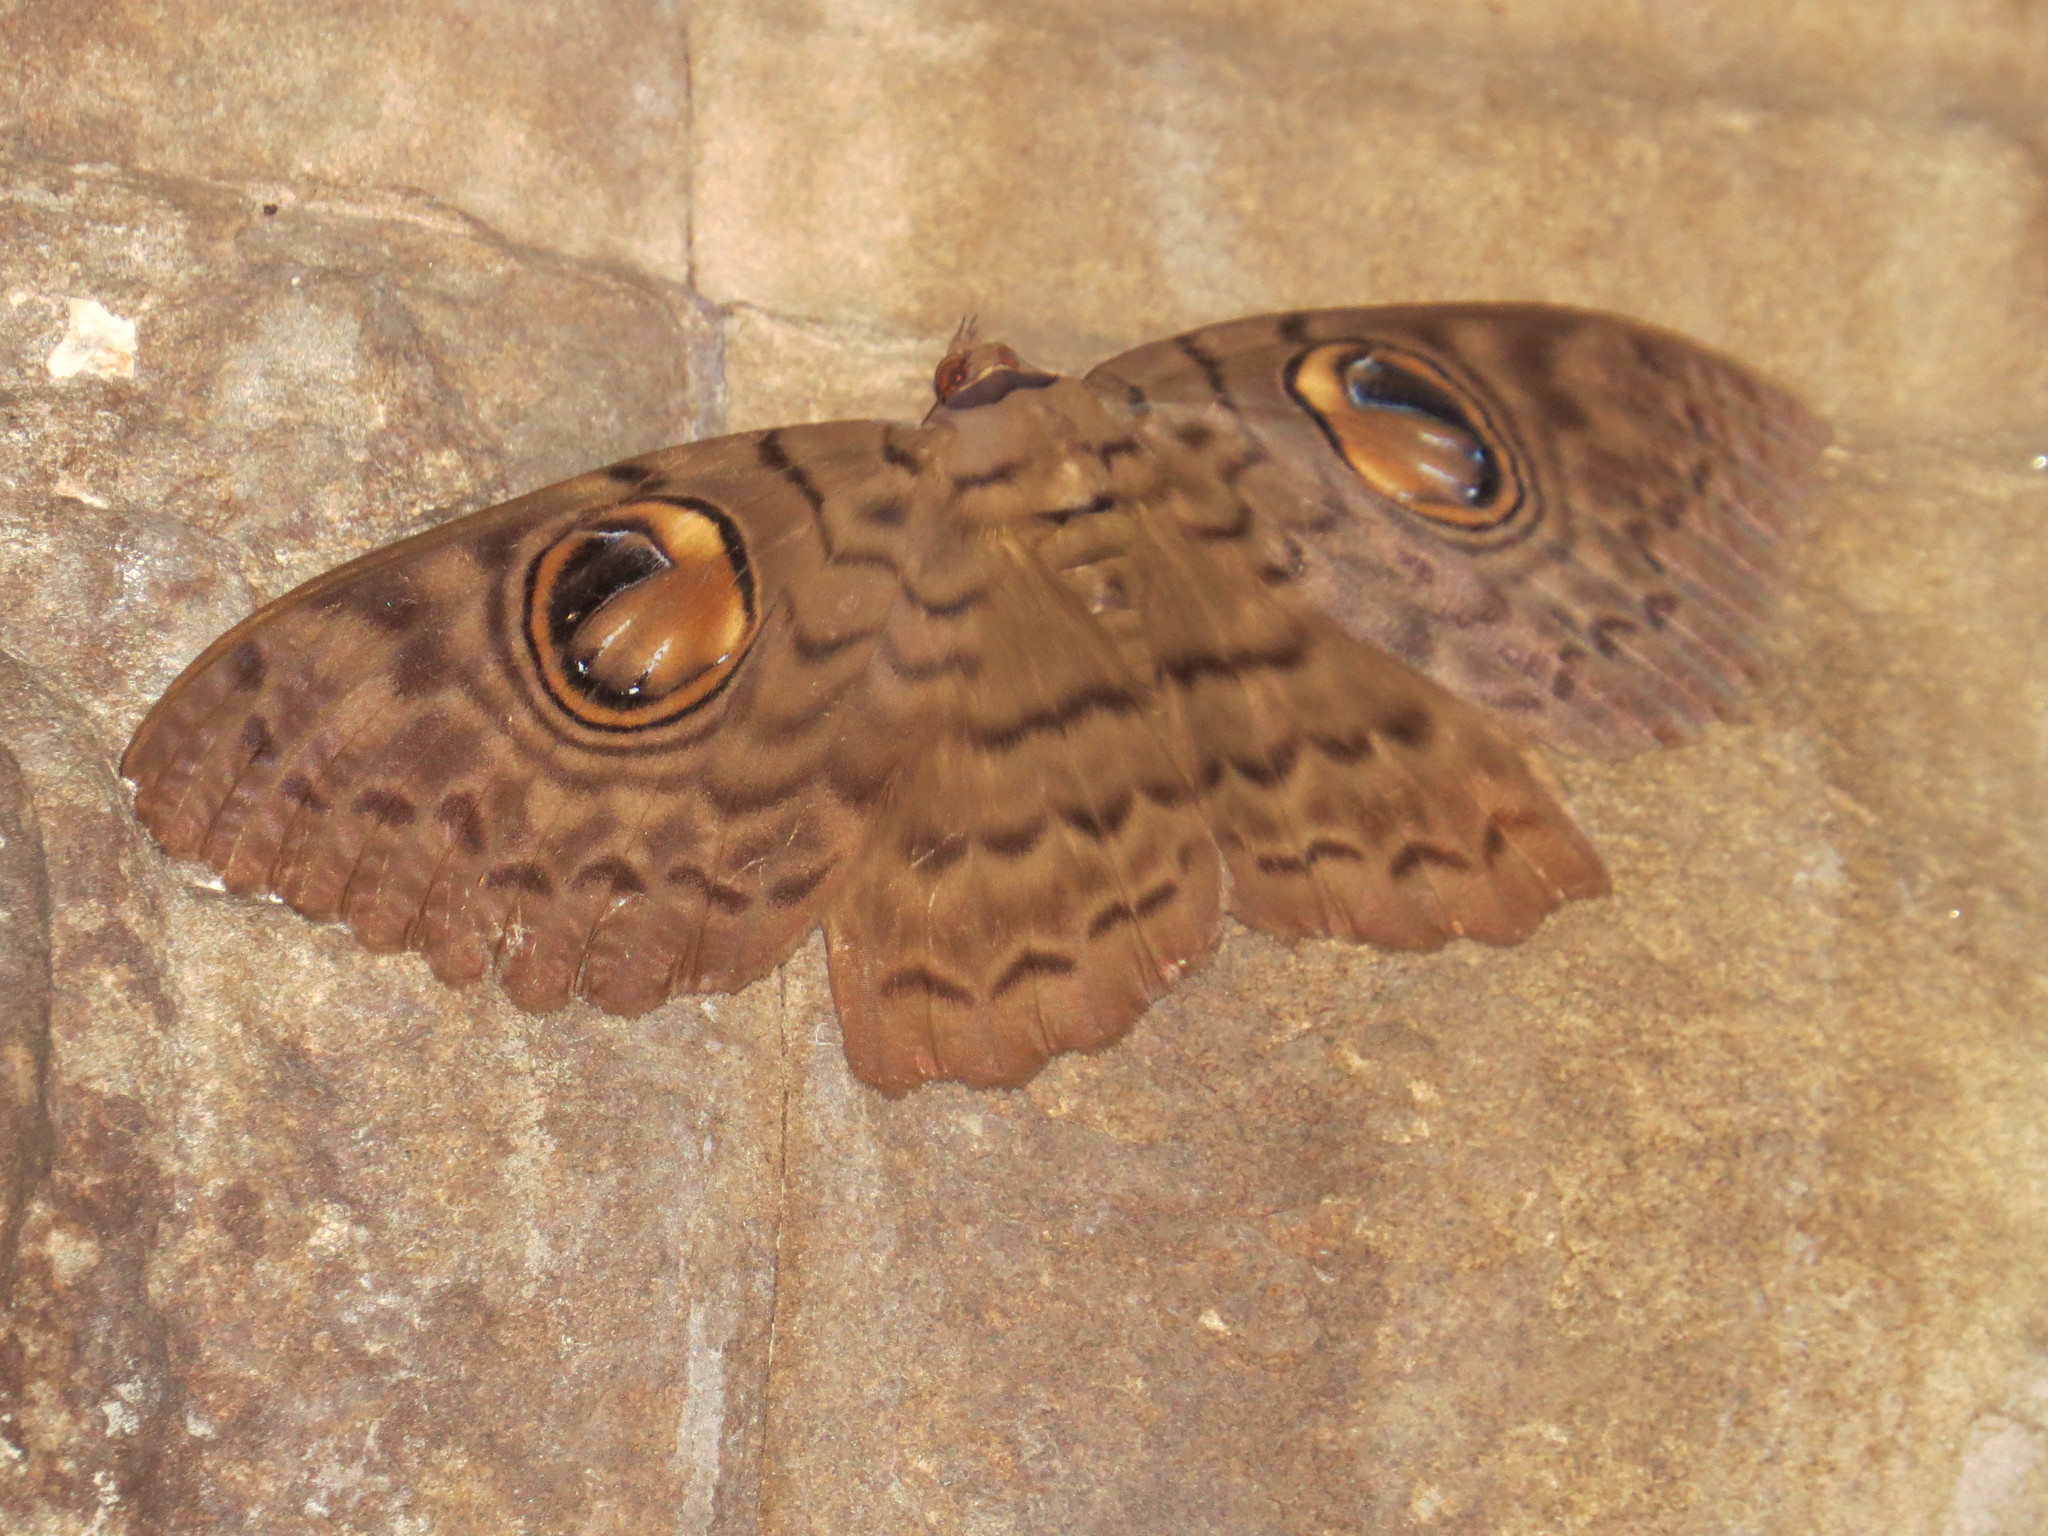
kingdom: Animalia
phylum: Arthropoda
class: Insecta
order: Lepidoptera
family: Erebidae
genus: Erebus
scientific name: Erebus macrops
